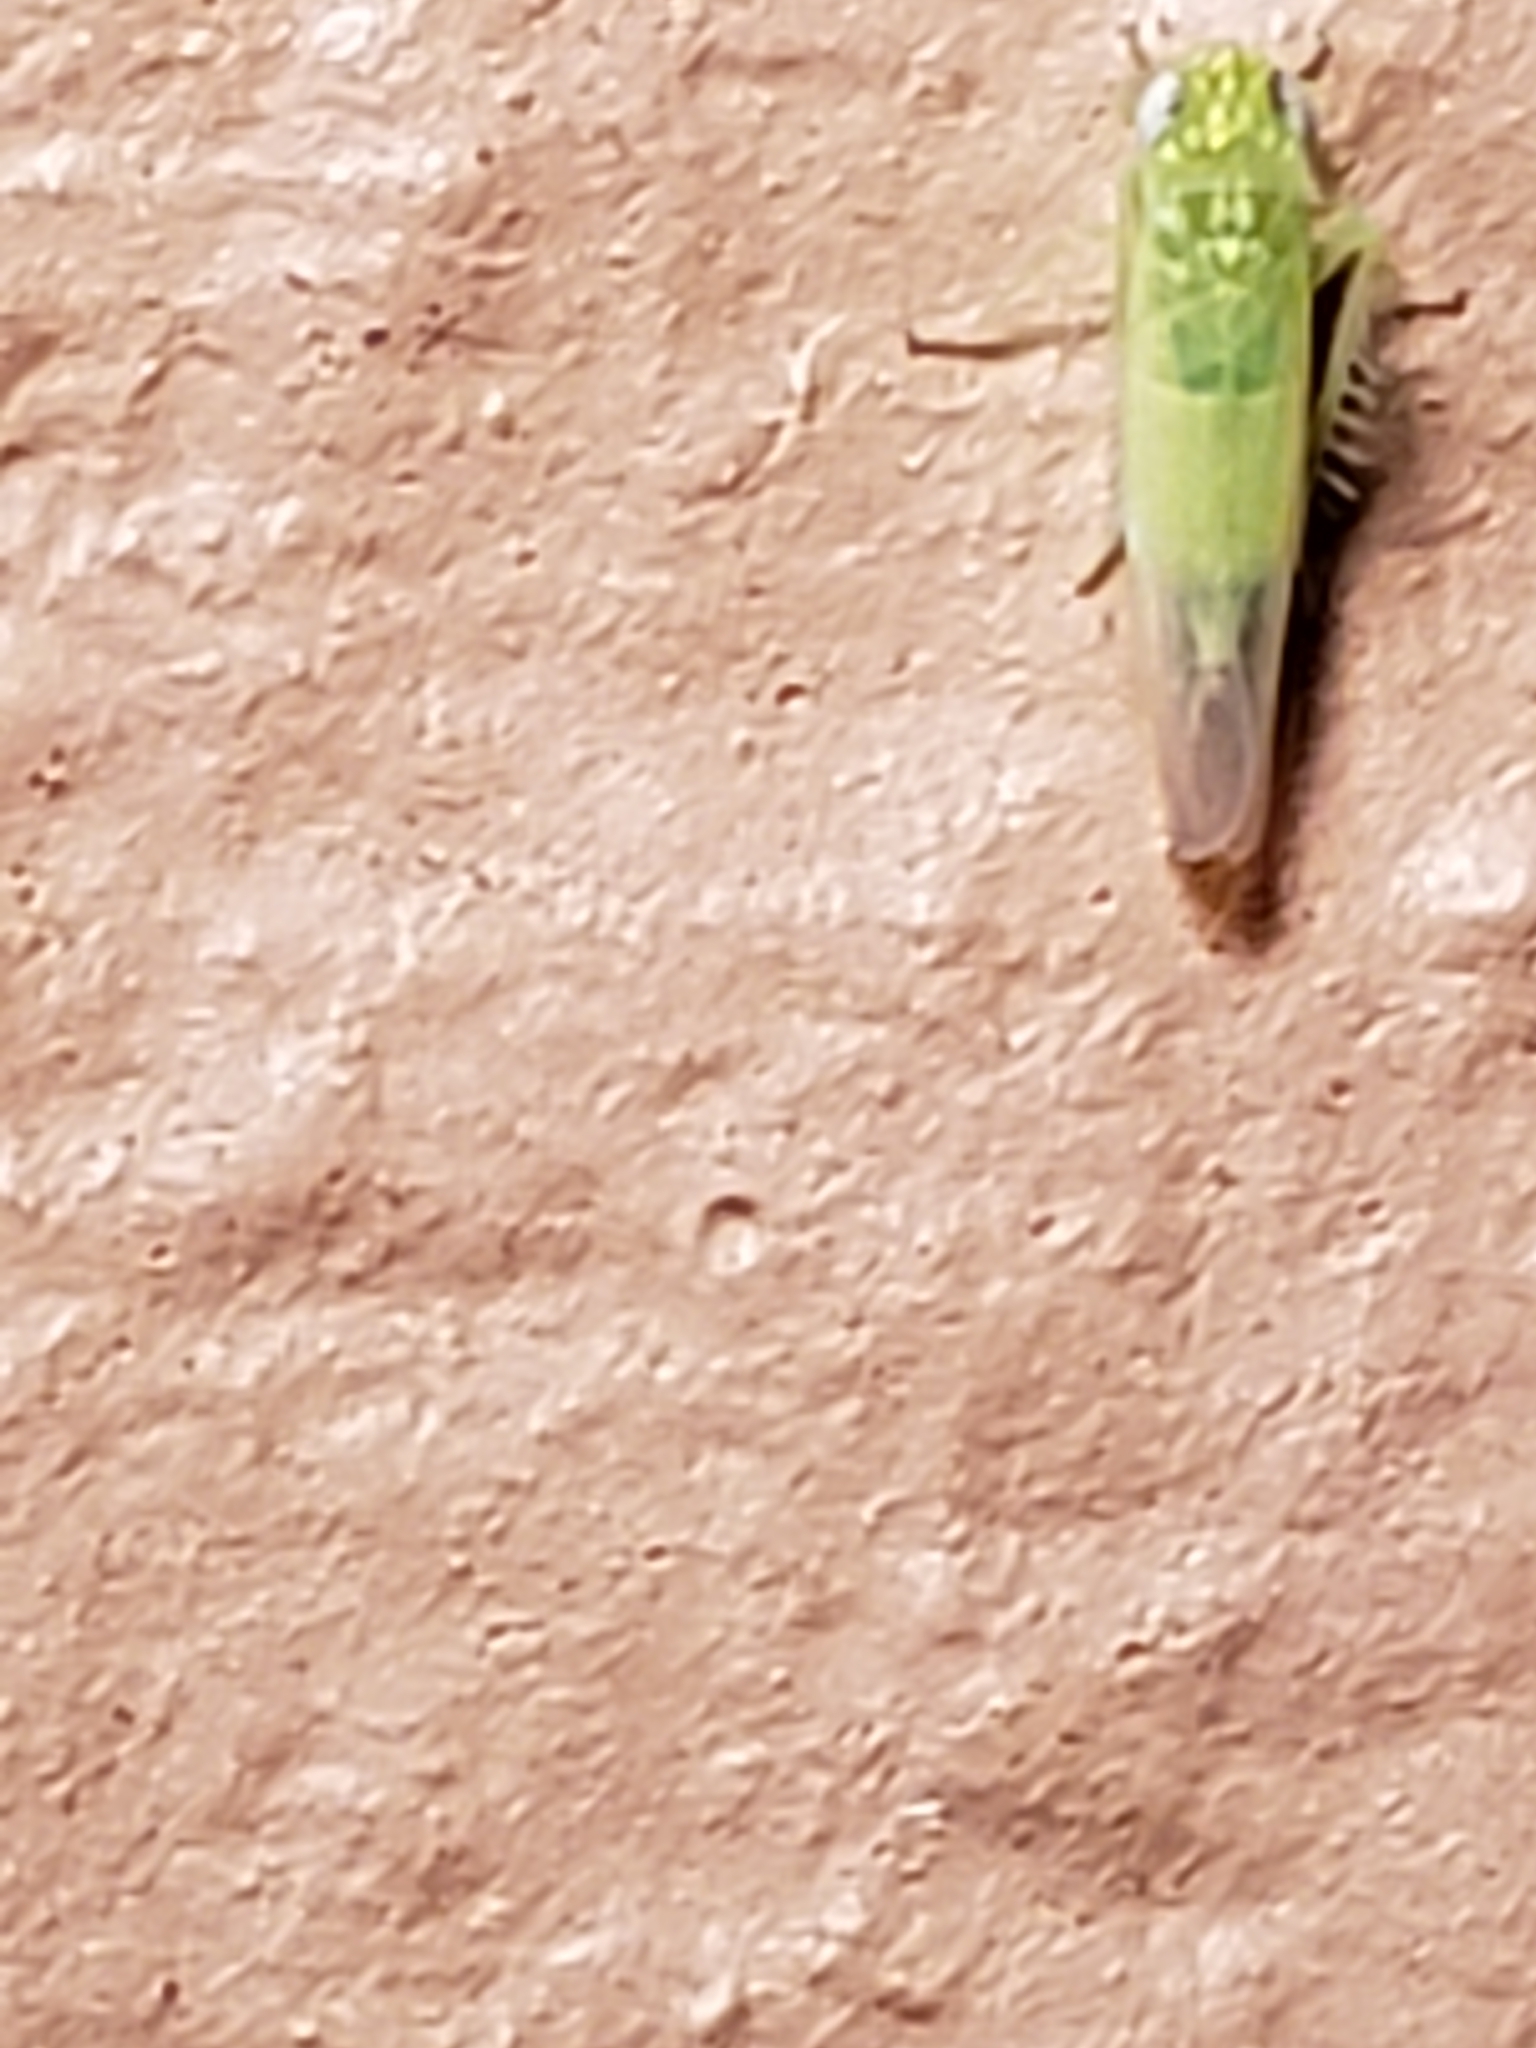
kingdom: Animalia
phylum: Arthropoda
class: Insecta
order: Hemiptera
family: Cicadellidae
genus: Empoasca
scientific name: Empoasca fabae
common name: Potato leafhopper
